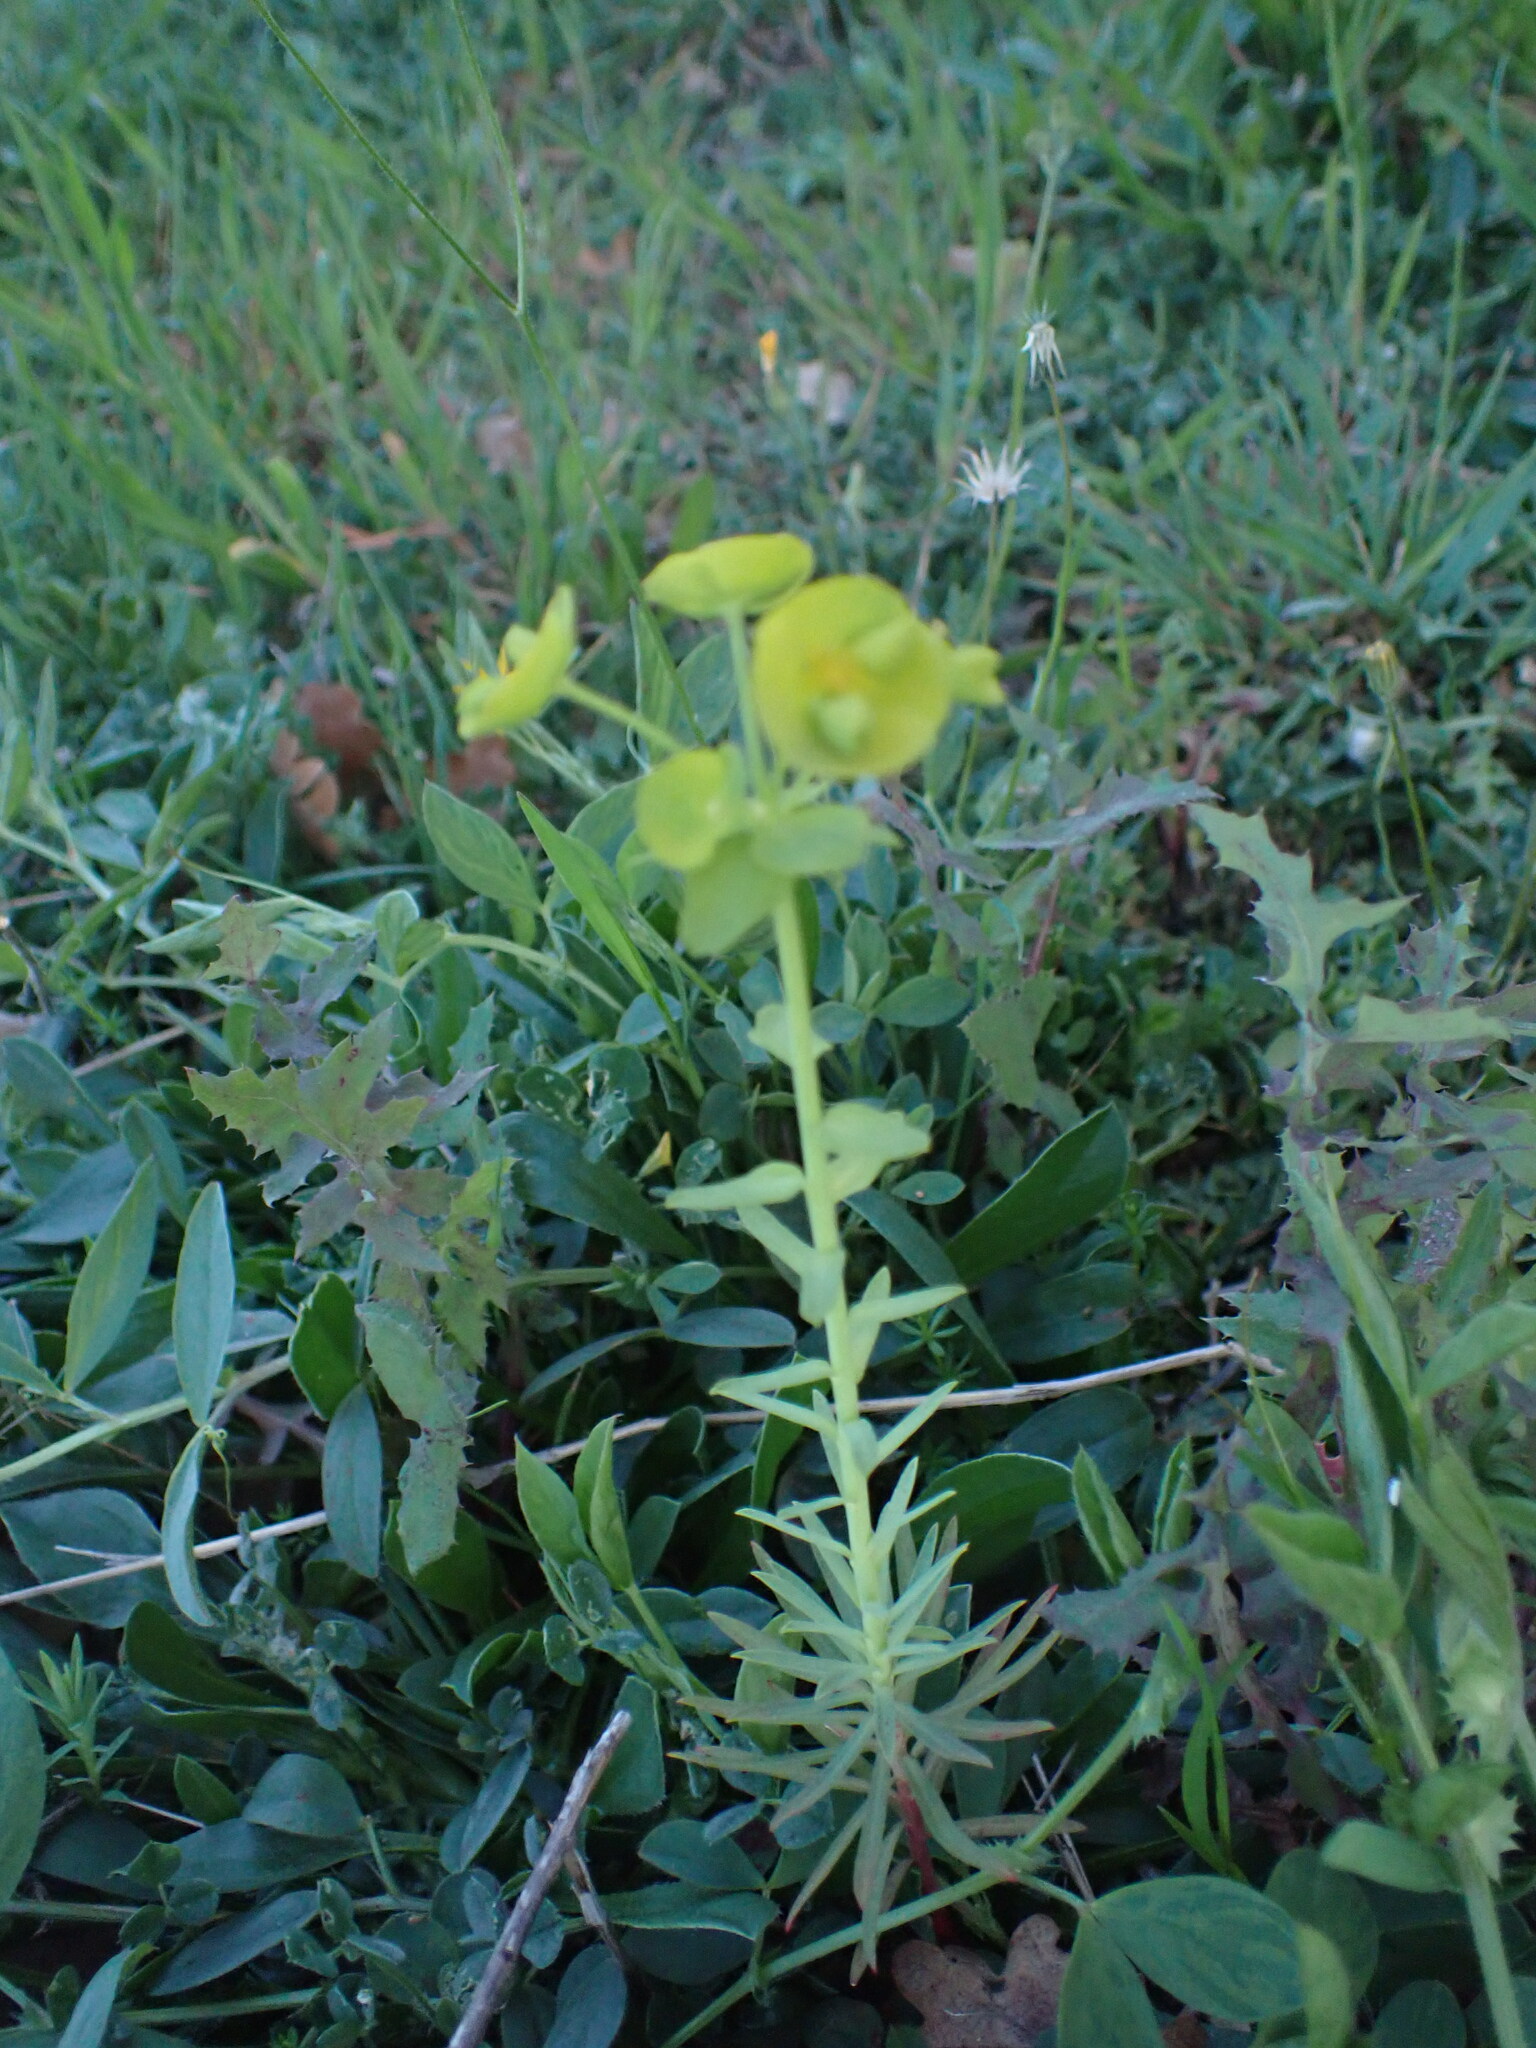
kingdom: Plantae
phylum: Tracheophyta
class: Magnoliopsida
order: Malpighiales
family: Euphorbiaceae
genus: Euphorbia
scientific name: Euphorbia segetalis
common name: Corn spurge
